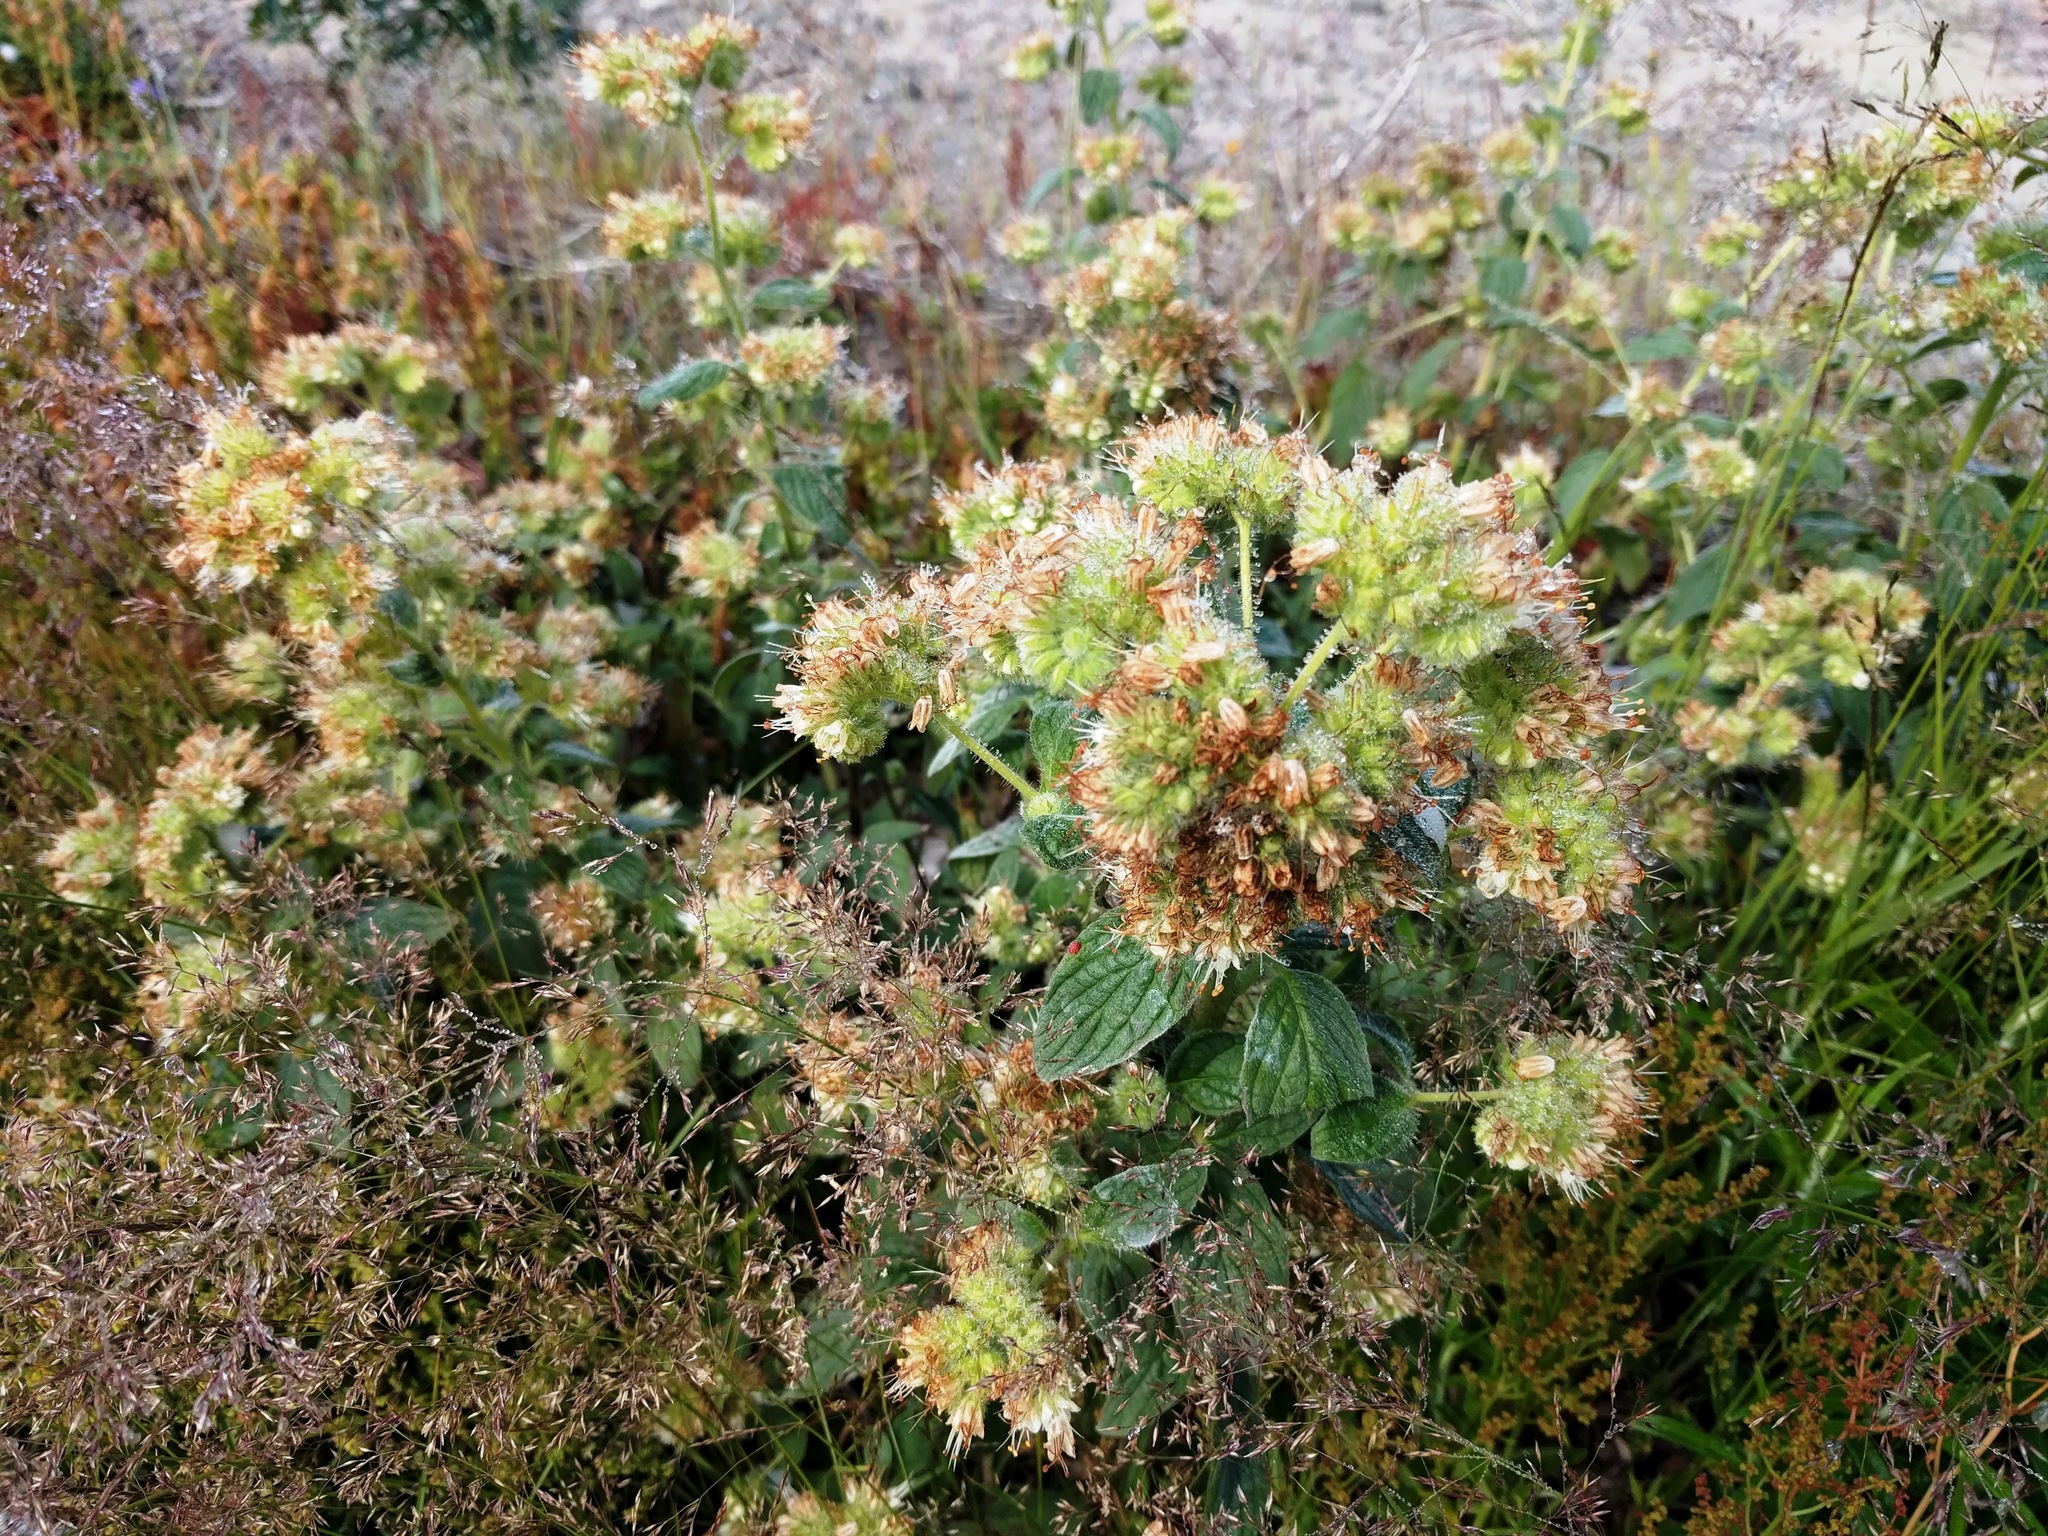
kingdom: Plantae
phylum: Tracheophyta
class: Magnoliopsida
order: Boraginales
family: Hydrophyllaceae
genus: Phacelia
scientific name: Phacelia hastata
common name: Silver-leaved phacelia
